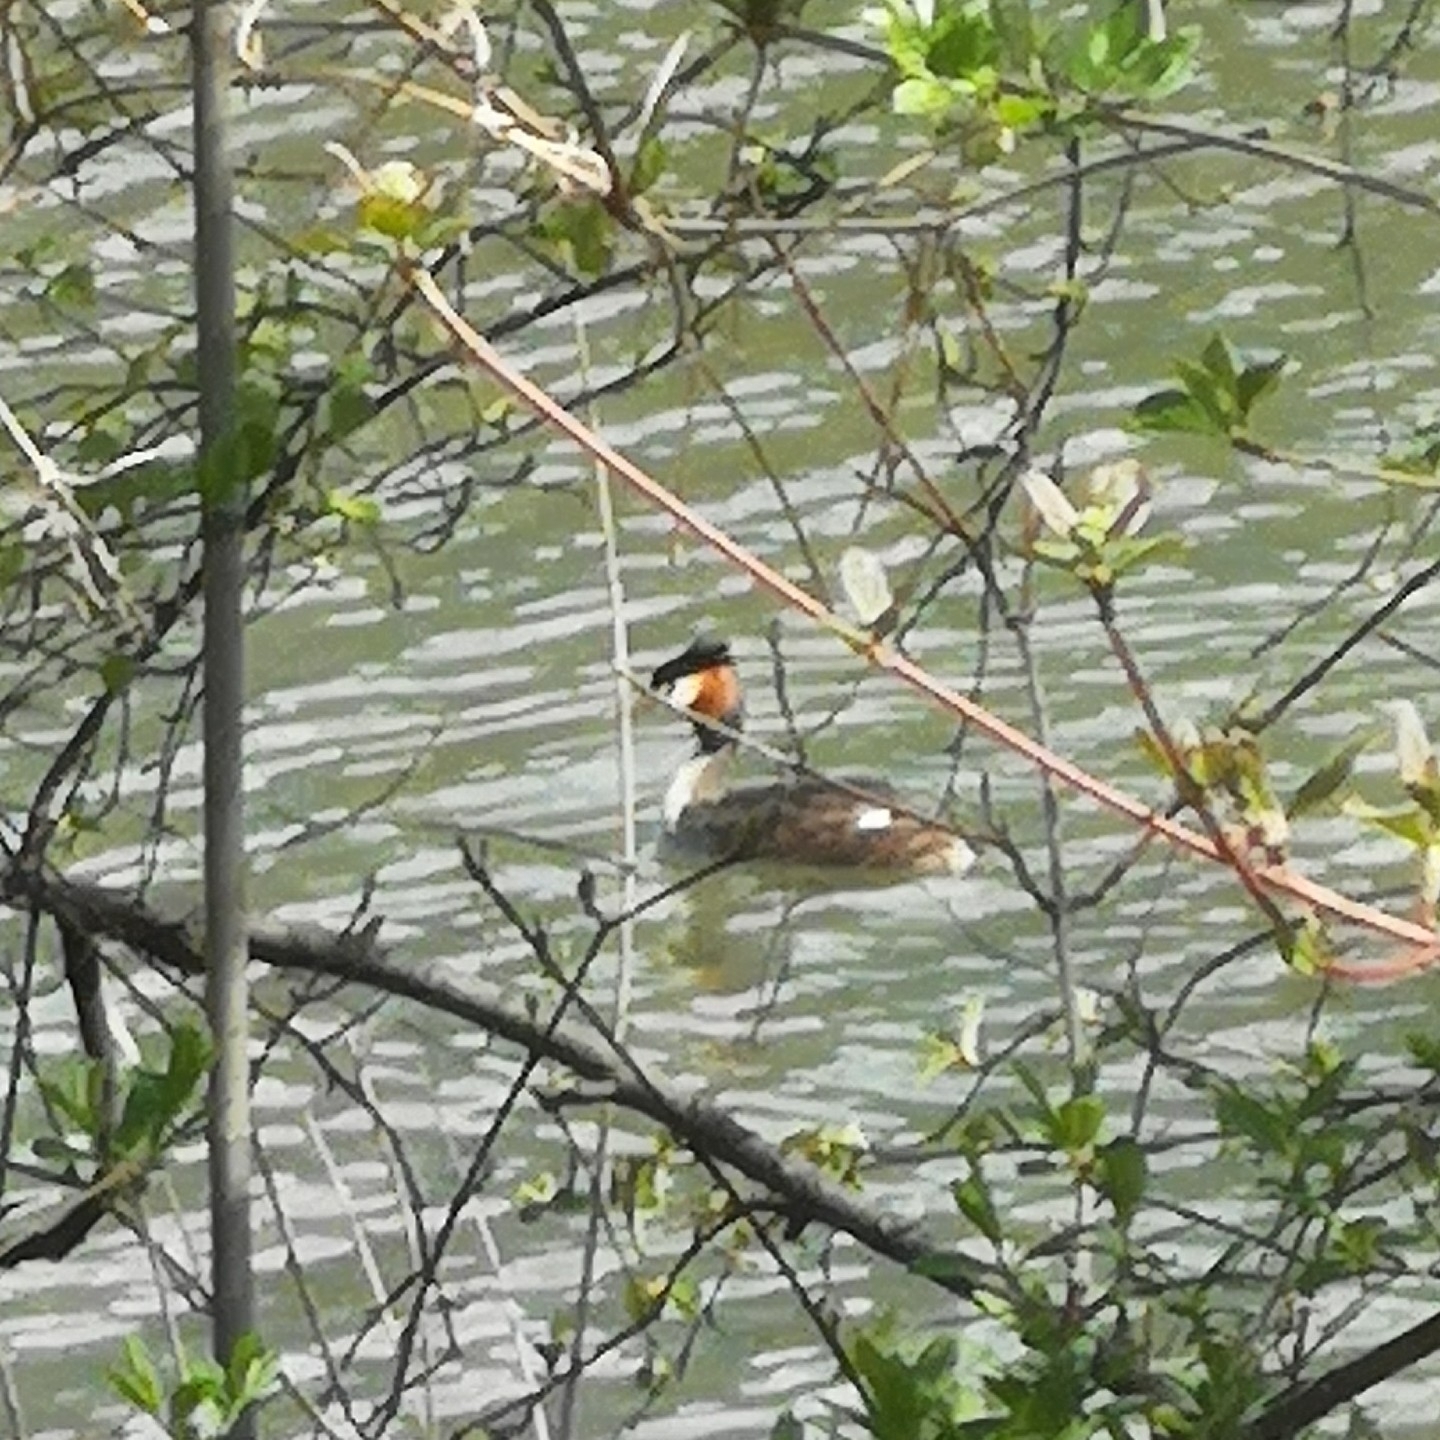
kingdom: Animalia
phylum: Chordata
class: Aves
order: Podicipediformes
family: Podicipedidae
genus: Podiceps
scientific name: Podiceps cristatus
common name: Great crested grebe
